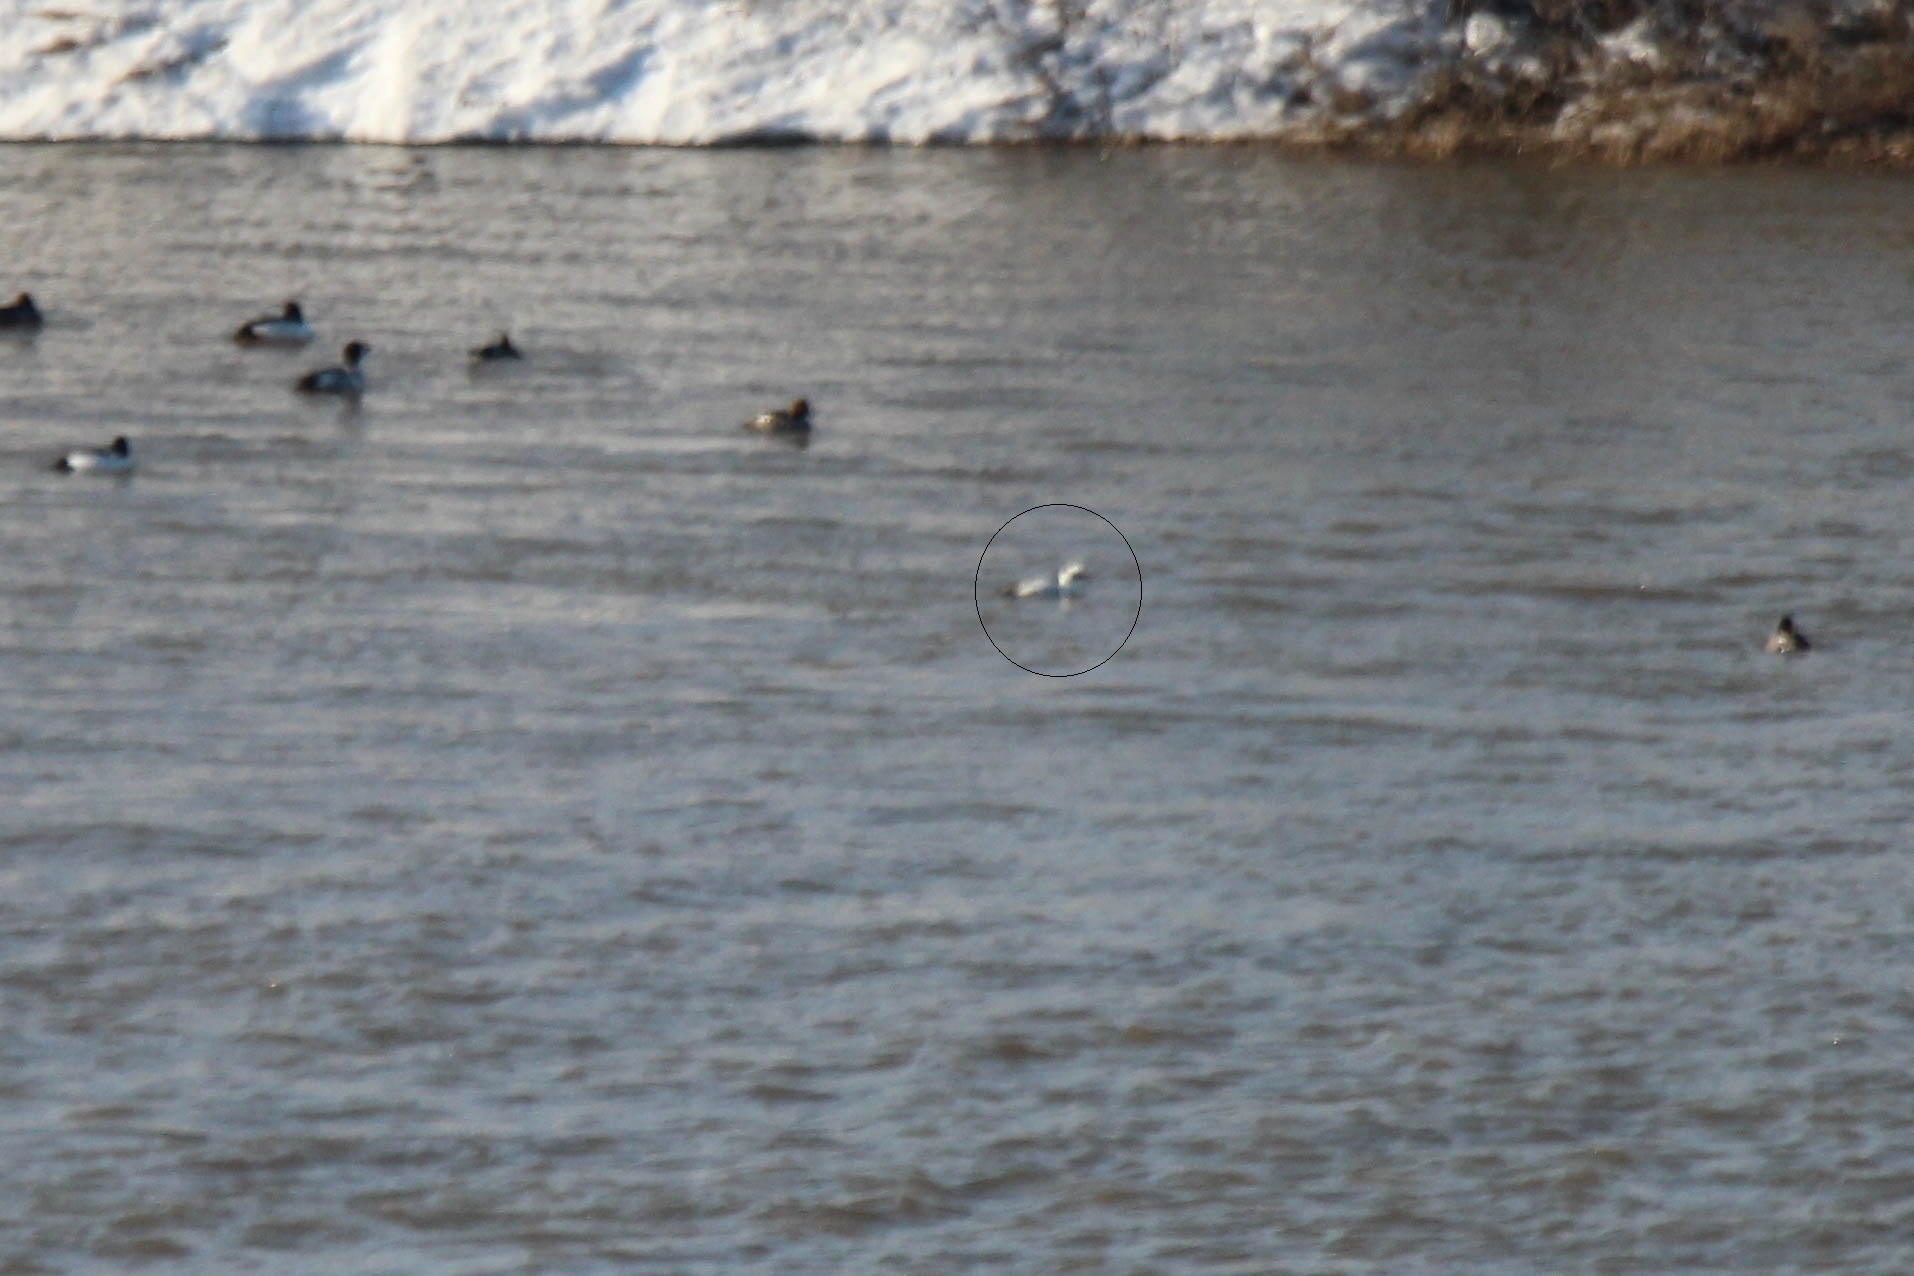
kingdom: Animalia
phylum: Chordata
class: Aves
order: Anseriformes
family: Anatidae
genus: Mergellus
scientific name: Mergellus albellus
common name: Smew
